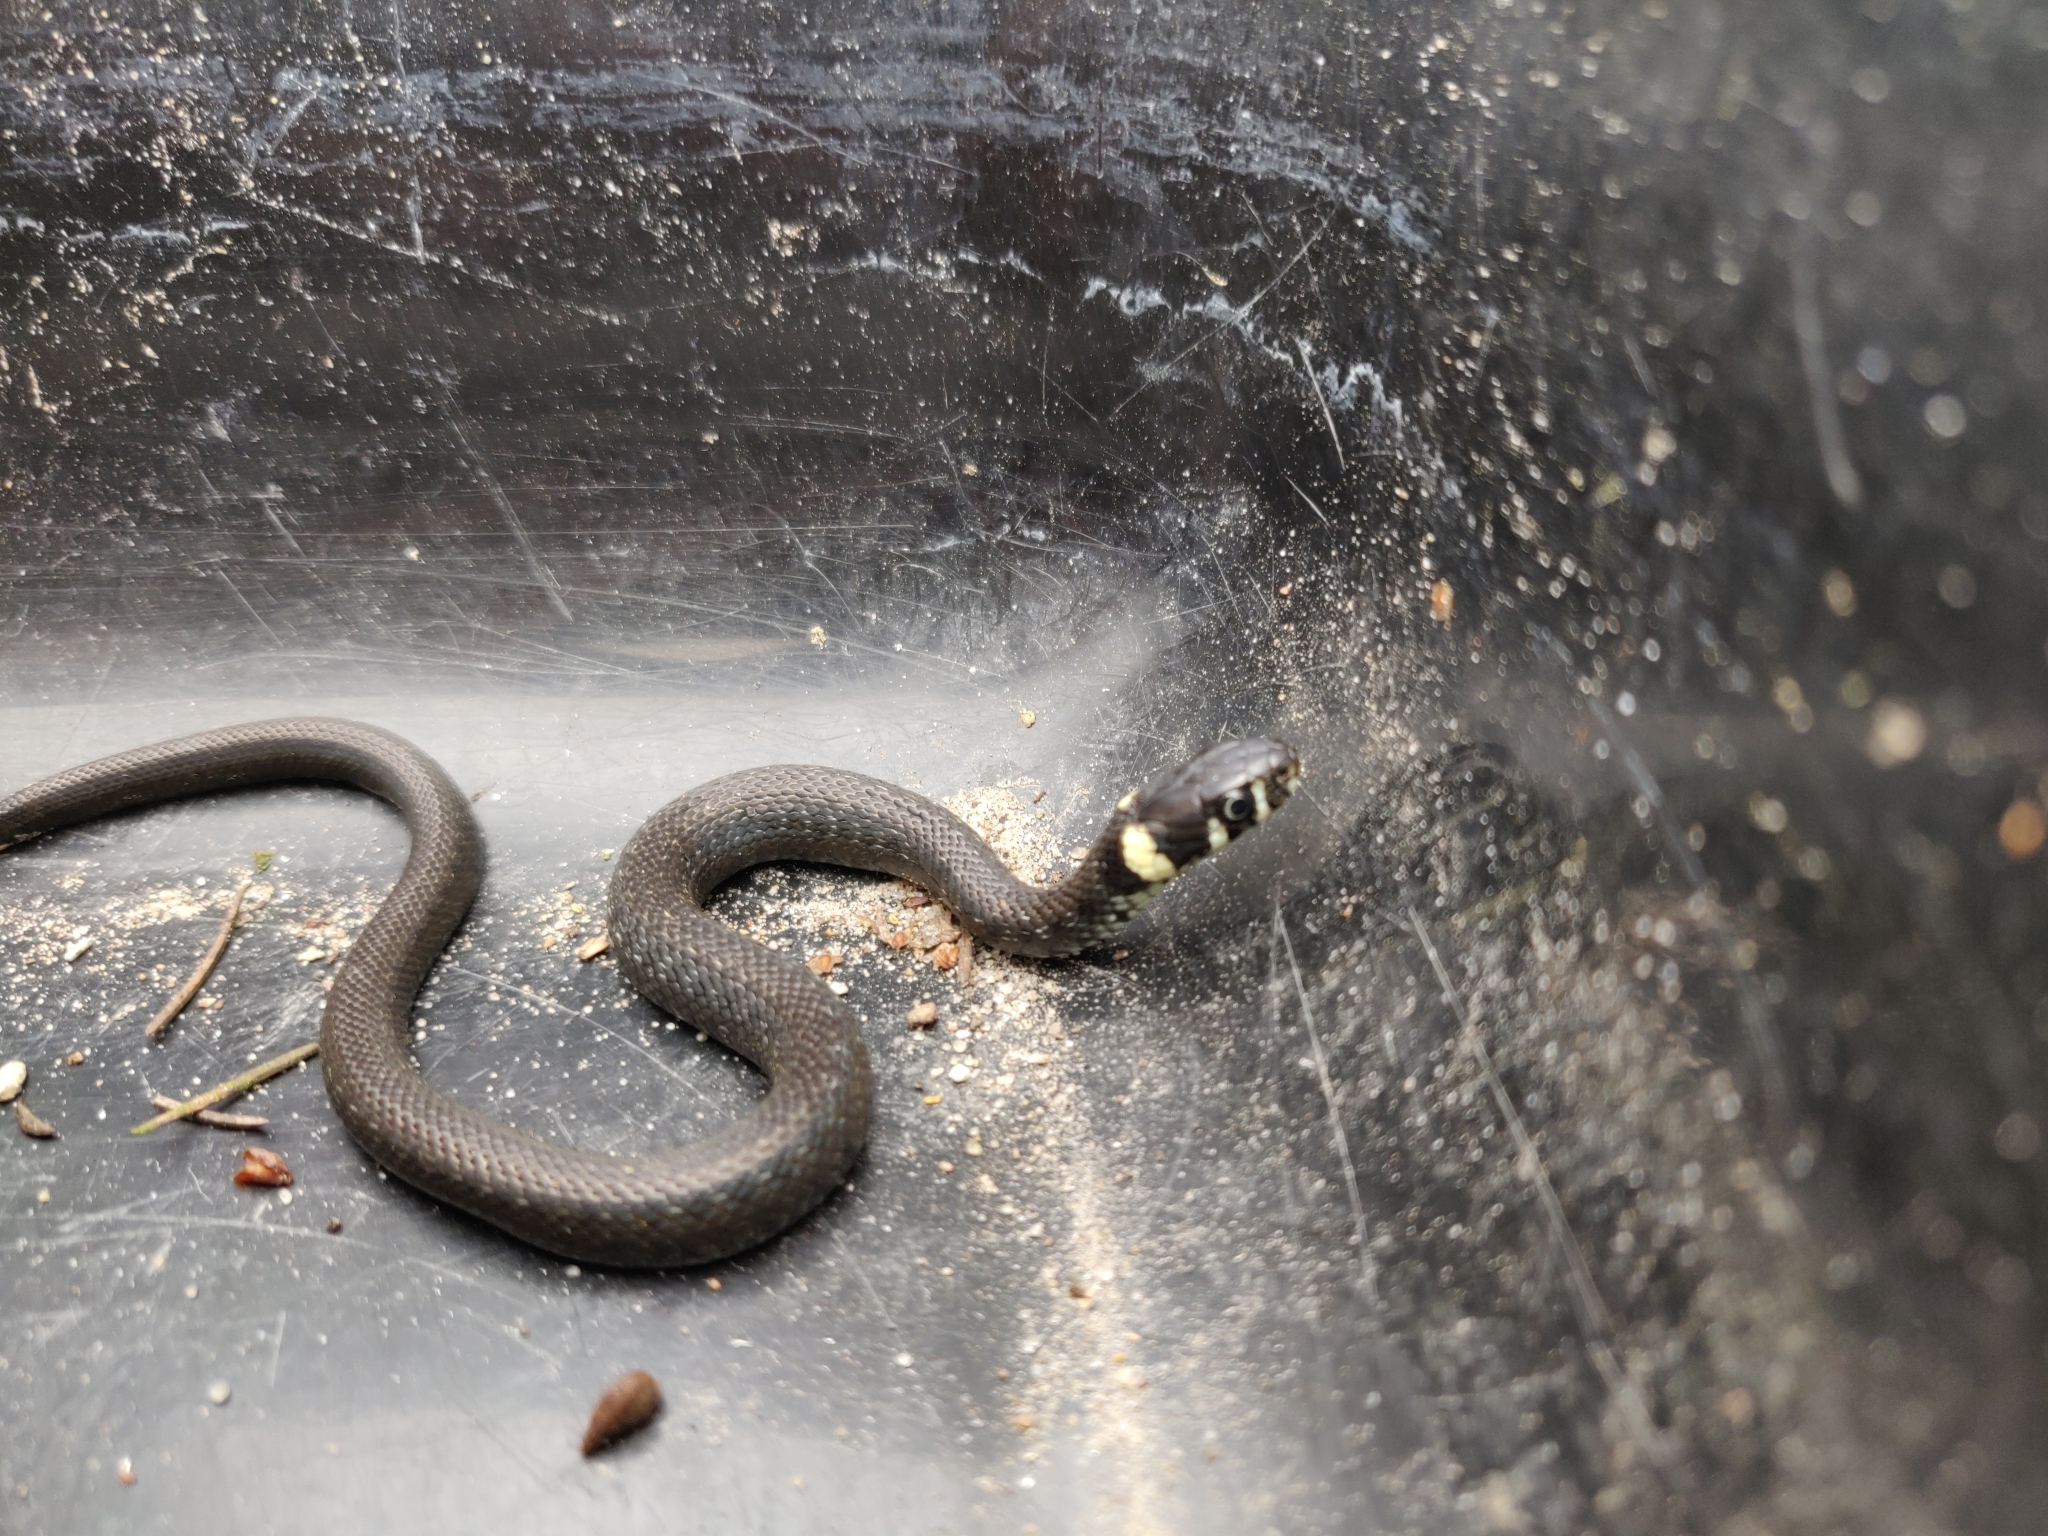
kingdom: Animalia
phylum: Chordata
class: Squamata
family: Colubridae
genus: Natrix
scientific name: Natrix natrix
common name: Grass snake
